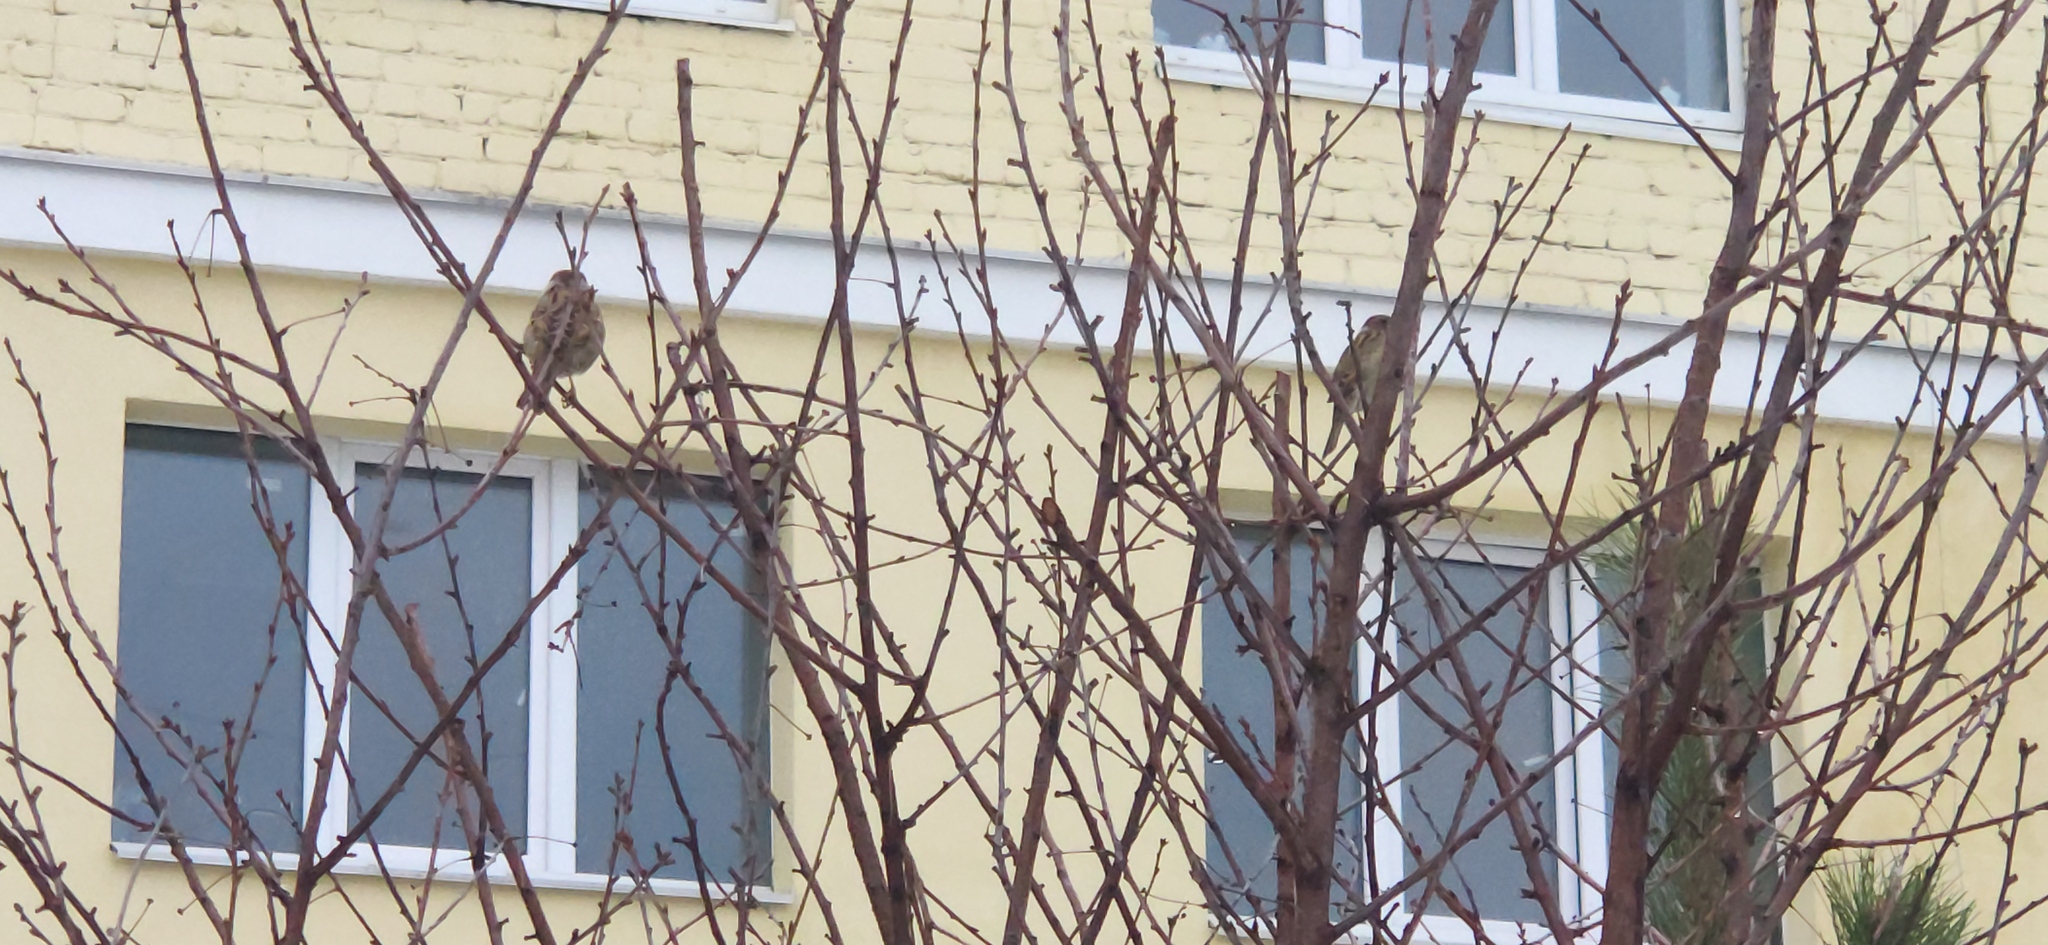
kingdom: Animalia
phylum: Chordata
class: Aves
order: Passeriformes
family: Passeridae
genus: Passer
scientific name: Passer montanus
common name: Eurasian tree sparrow
